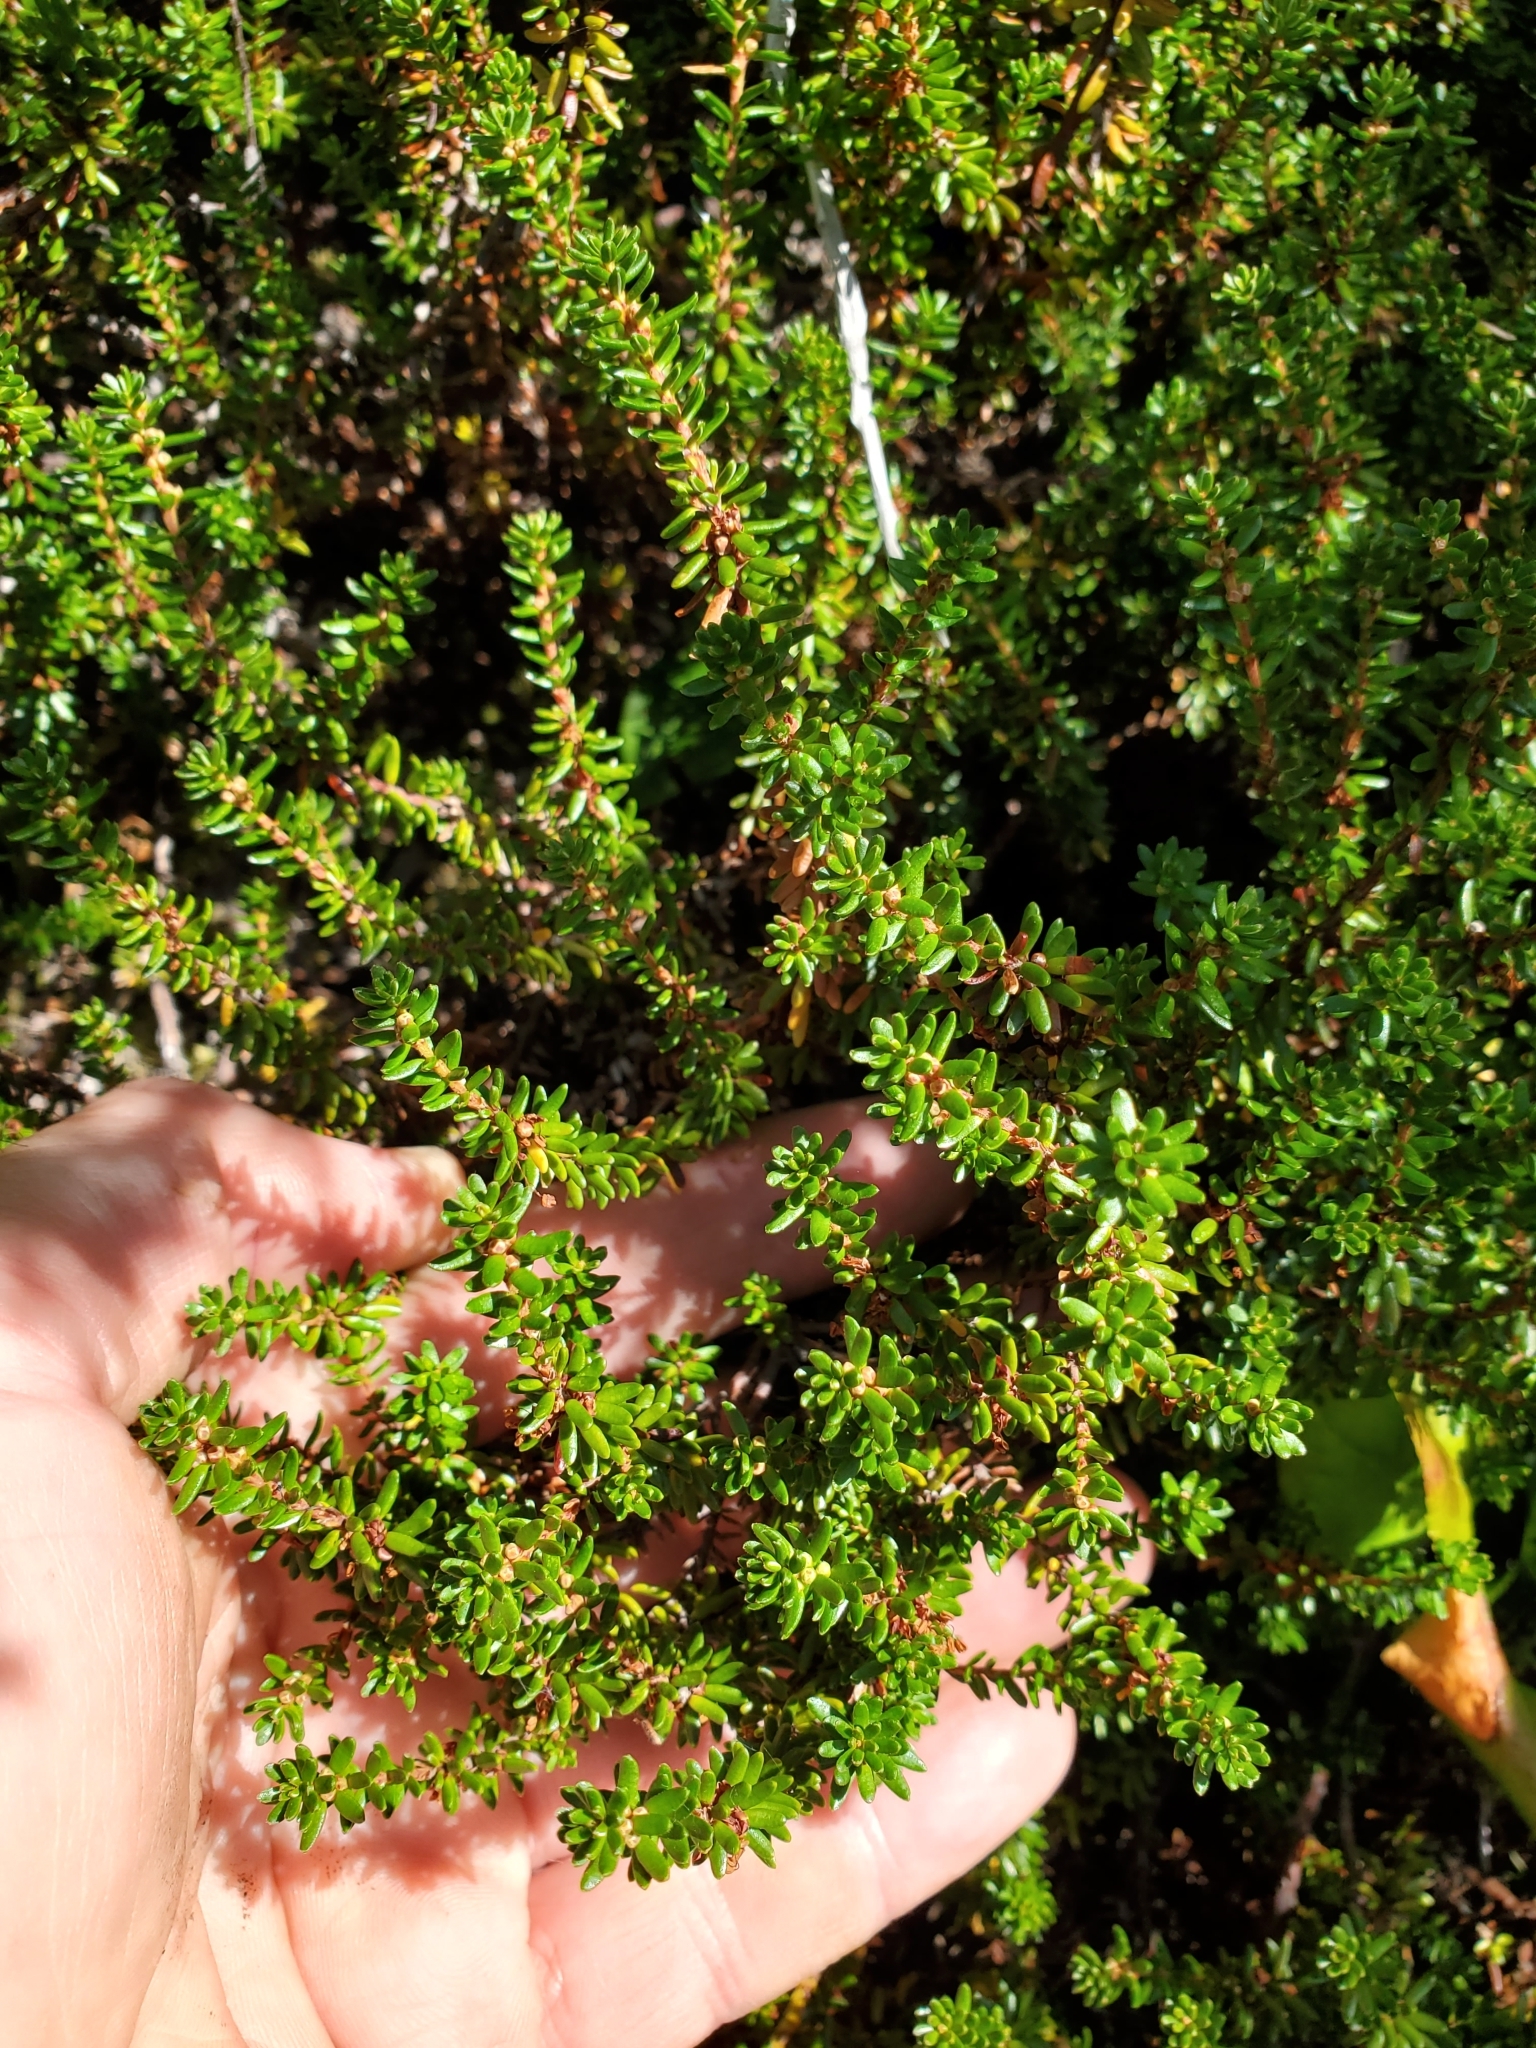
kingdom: Plantae
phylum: Tracheophyta
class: Magnoliopsida
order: Ericales
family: Ericaceae
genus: Empetrum
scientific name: Empetrum nigrum
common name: Black crowberry
